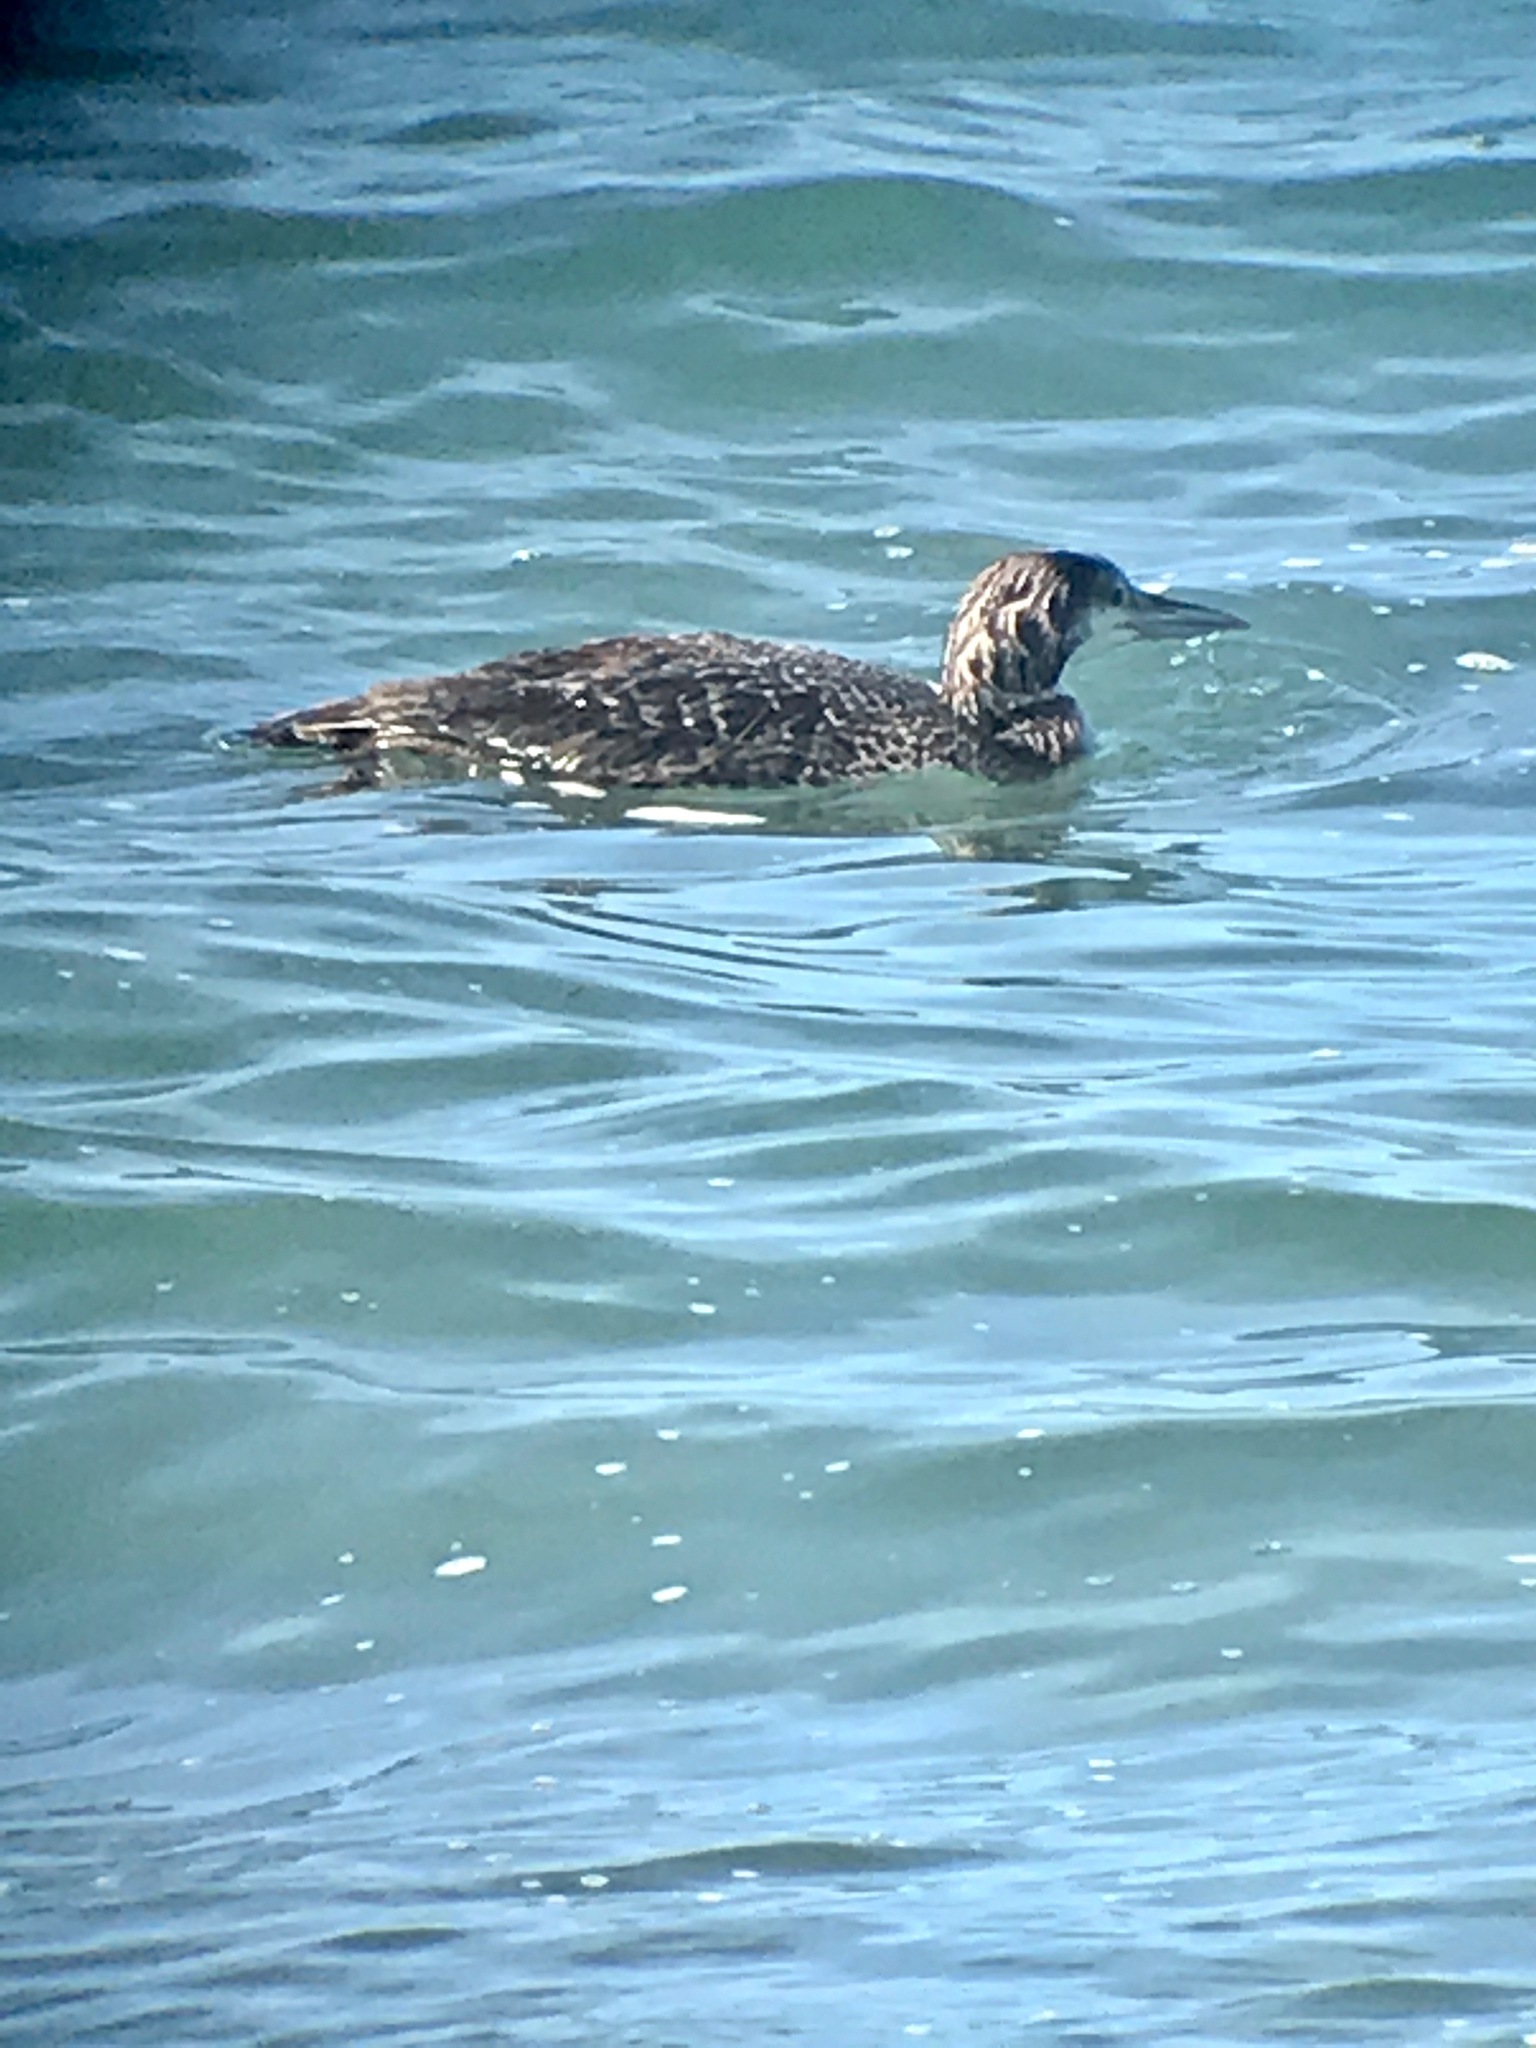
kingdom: Animalia
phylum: Chordata
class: Aves
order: Gaviiformes
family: Gaviidae
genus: Gavia
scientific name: Gavia immer
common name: Common loon
